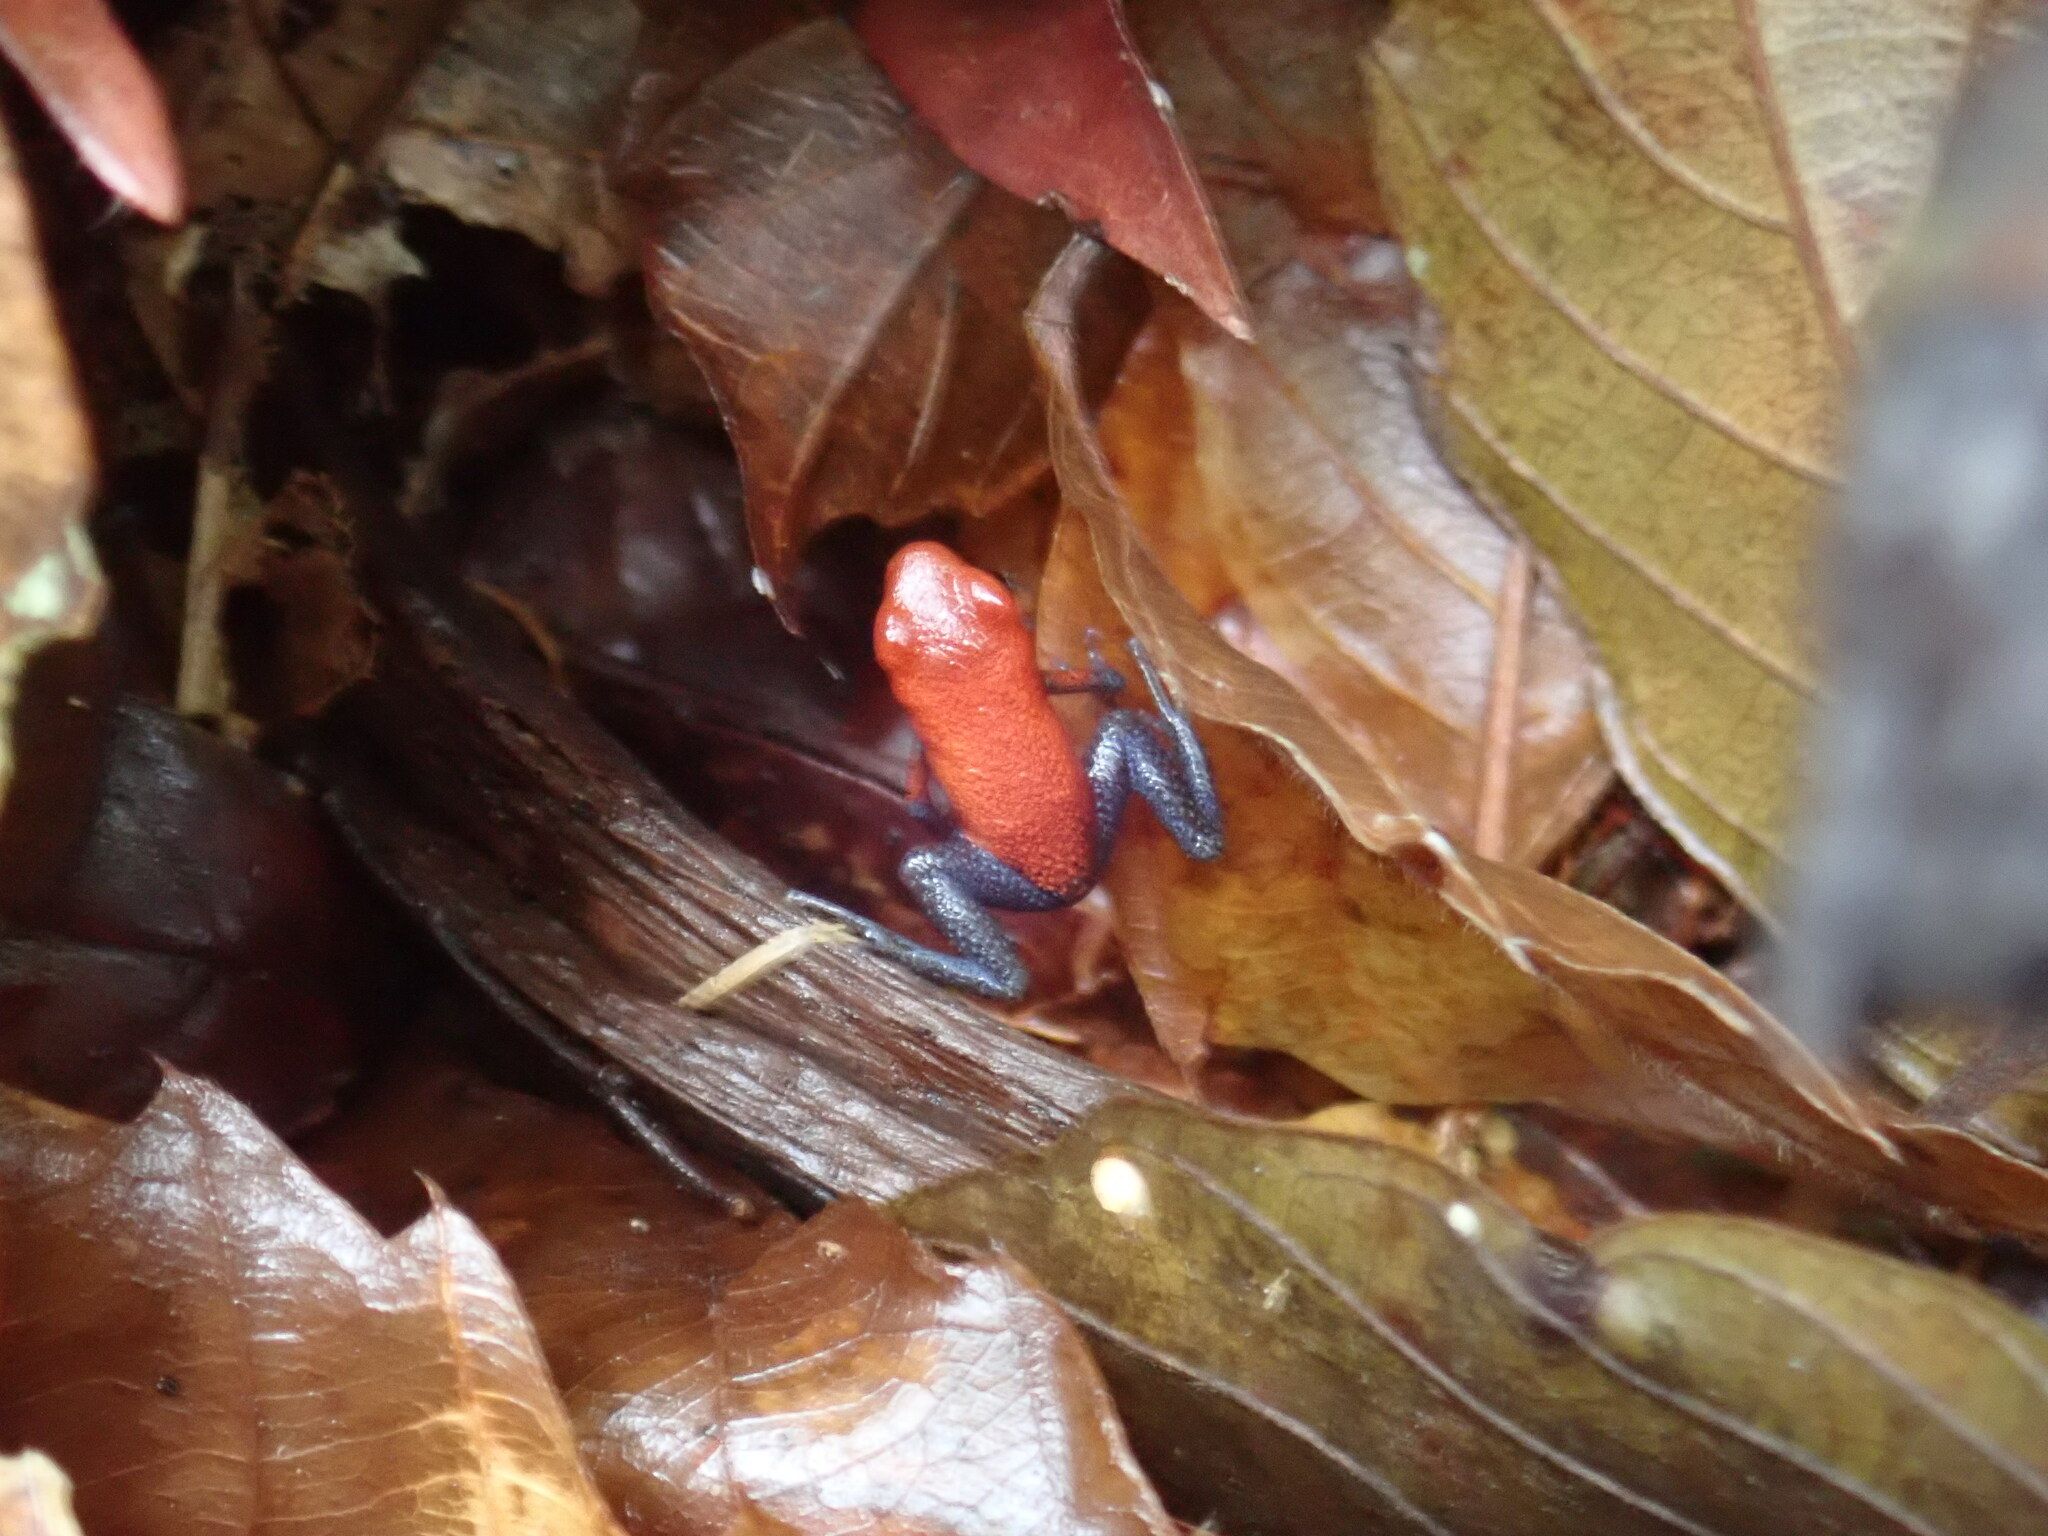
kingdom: Animalia
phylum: Chordata
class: Amphibia
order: Anura
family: Dendrobatidae
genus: Oophaga
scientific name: Oophaga pumilio
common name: Flaming poison frog
